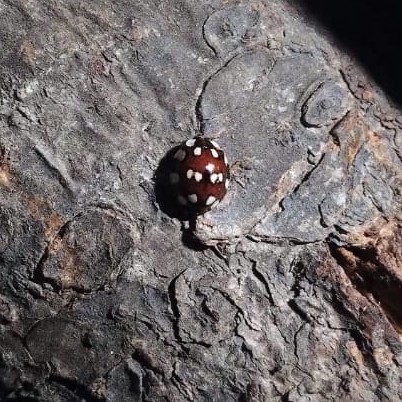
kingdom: Animalia
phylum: Arthropoda
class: Insecta
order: Coleoptera
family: Coccinellidae
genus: Harmonia
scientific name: Harmonia eucharis
